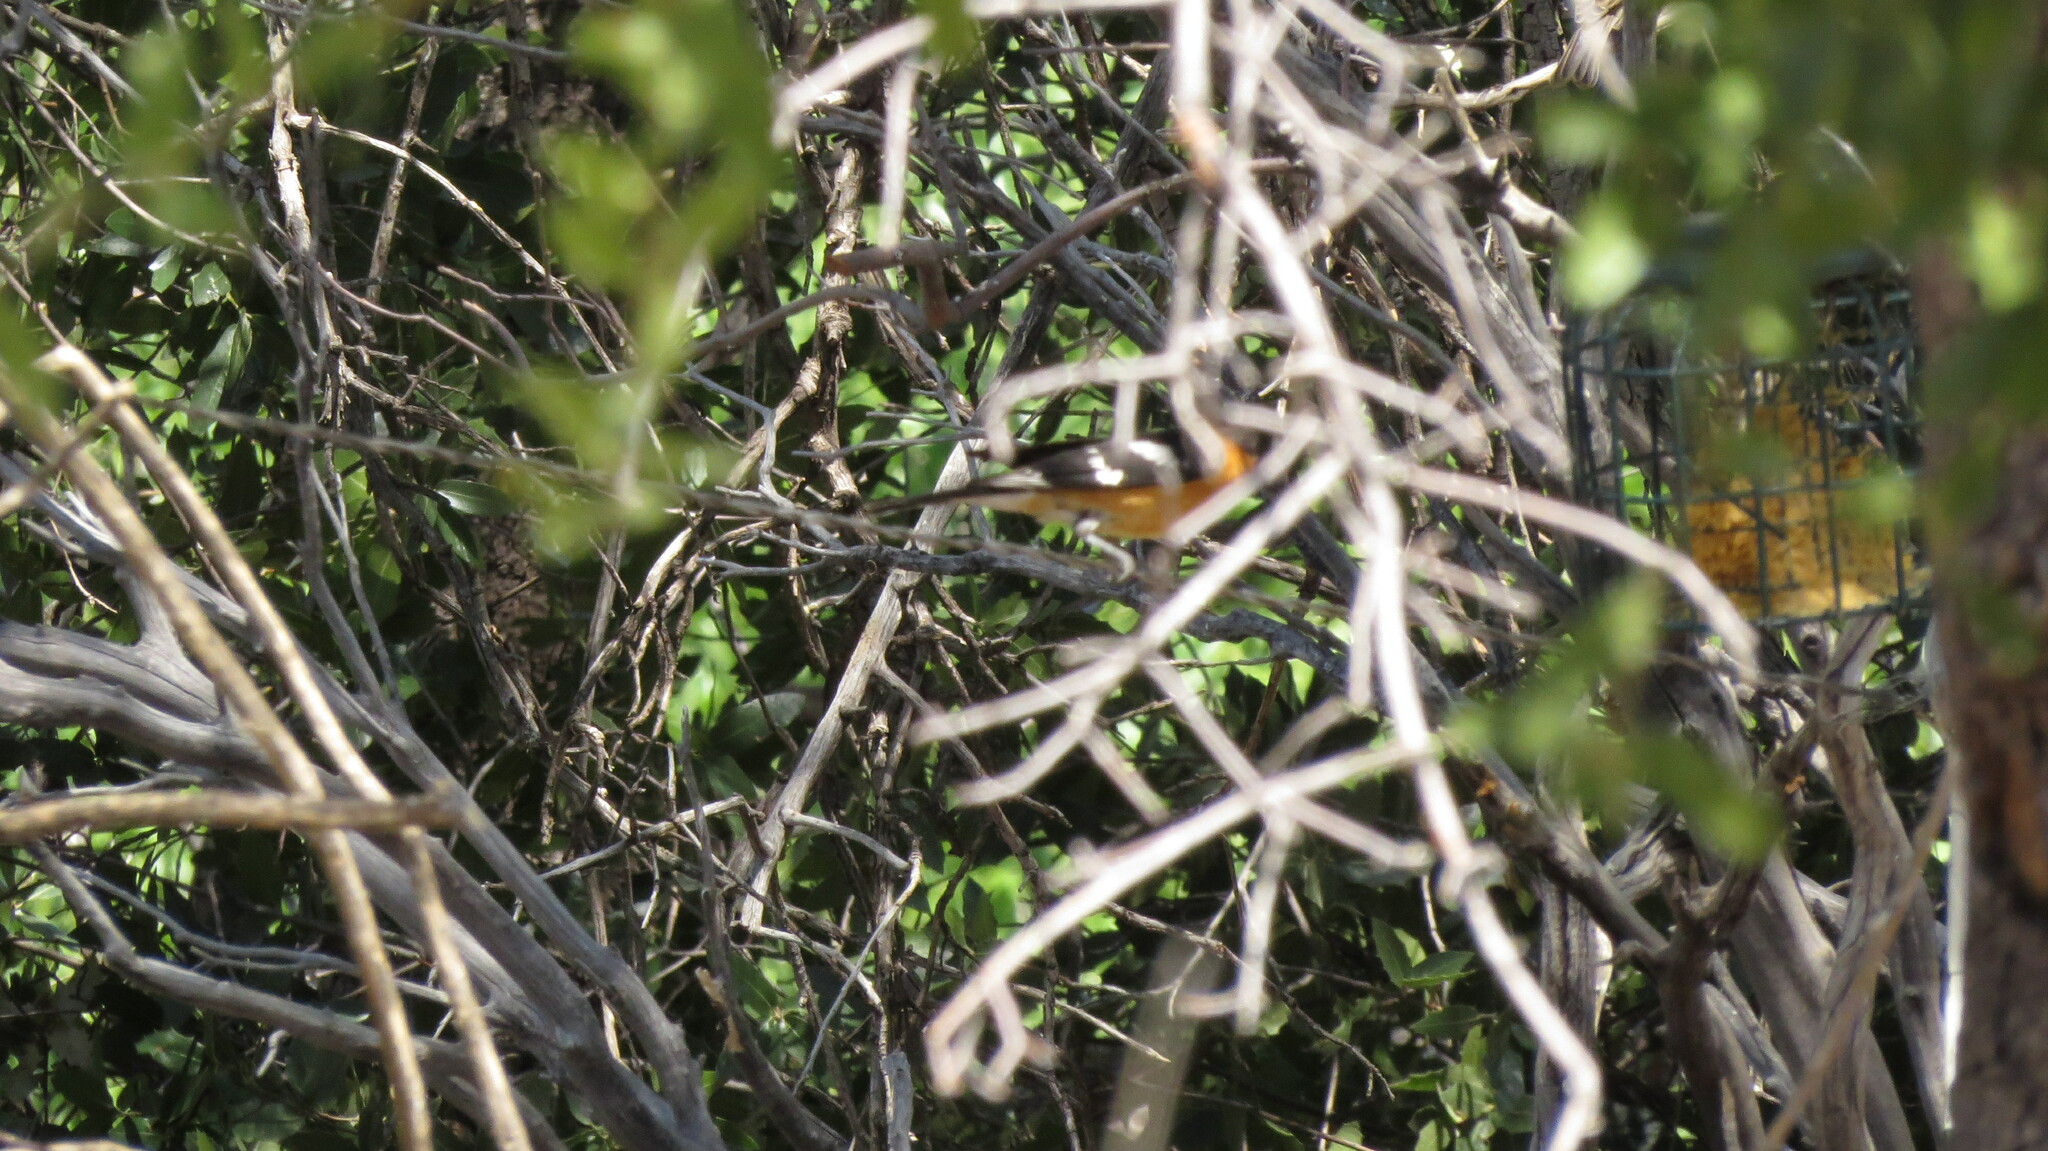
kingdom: Animalia
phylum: Chordata
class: Aves
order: Passeriformes
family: Cardinalidae
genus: Pheucticus
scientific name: Pheucticus melanocephalus
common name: Black-headed grosbeak
